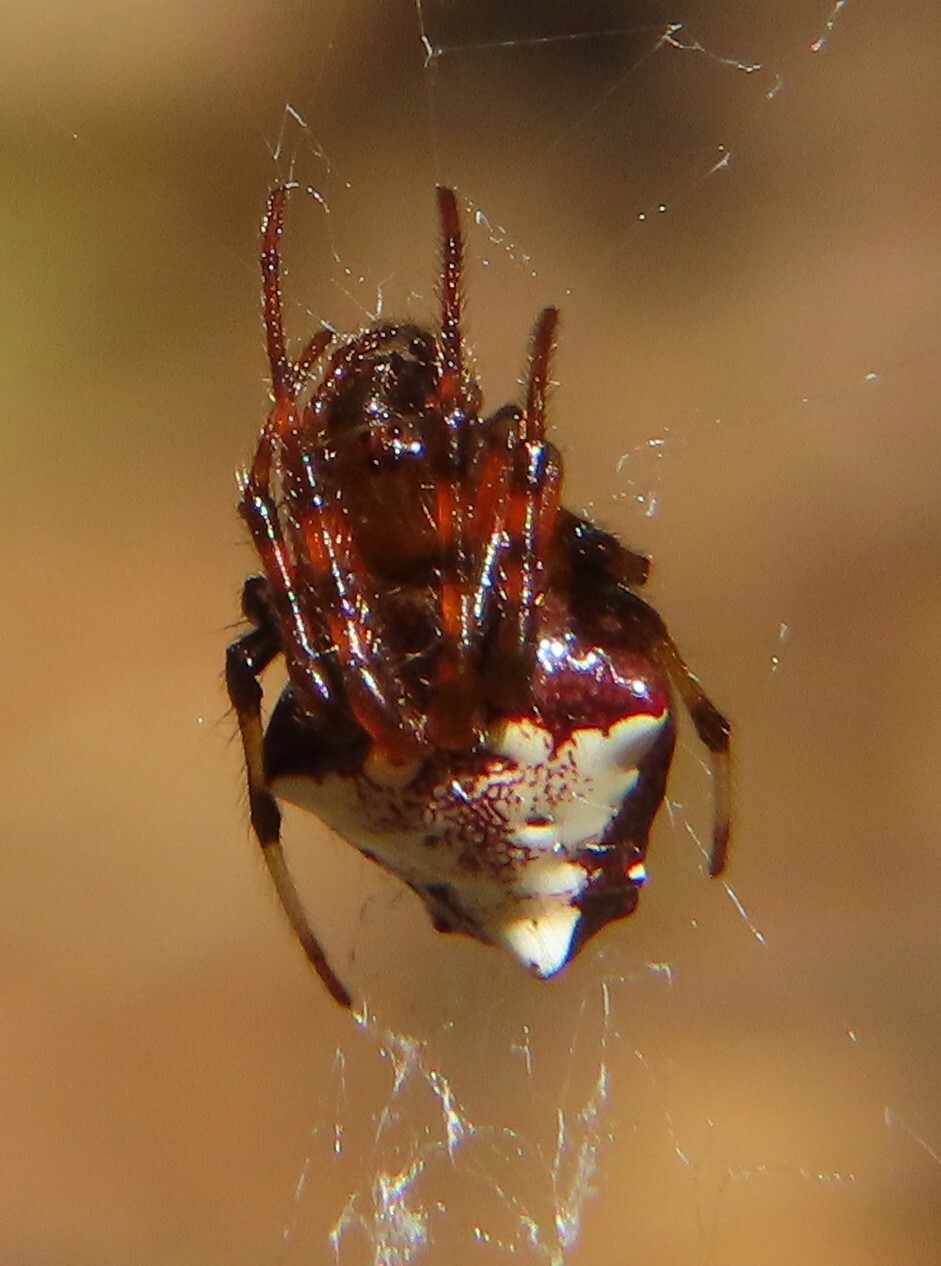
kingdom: Animalia
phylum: Arthropoda
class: Arachnida
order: Araneae
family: Araneidae
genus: Verrucosa
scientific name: Verrucosa arenata
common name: Orb weavers
